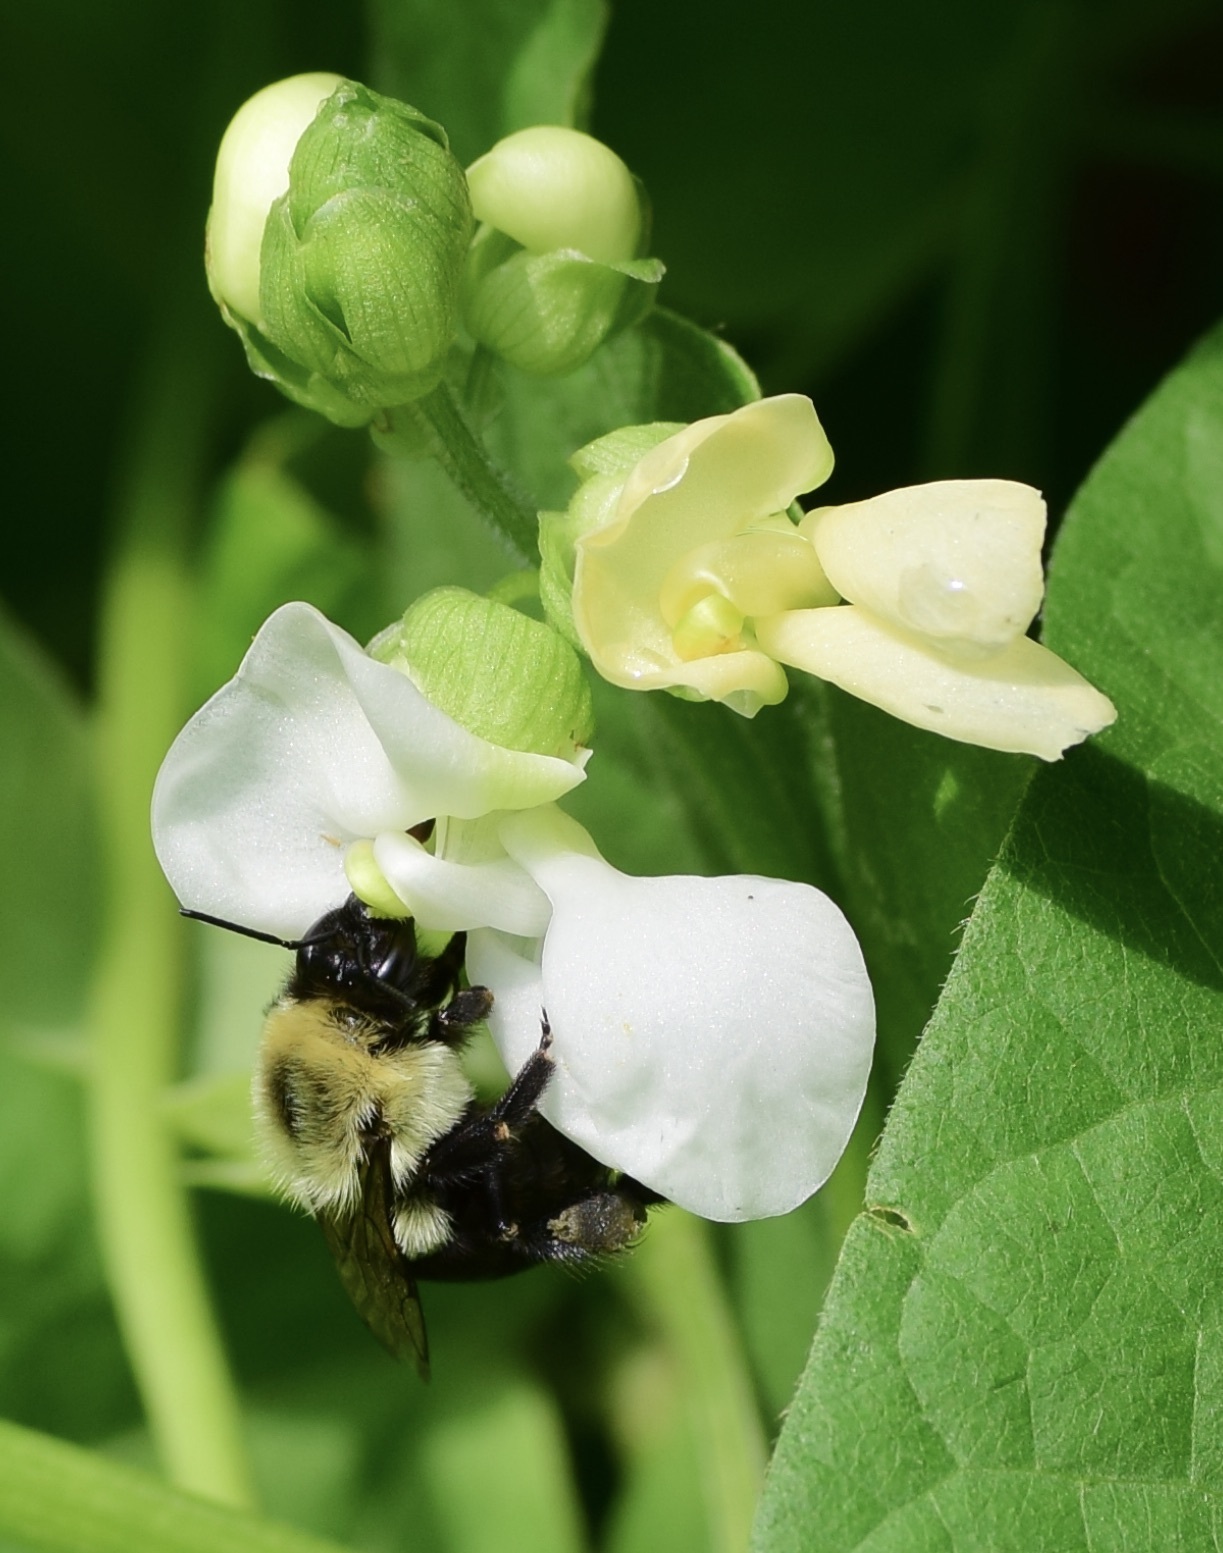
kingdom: Animalia
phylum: Arthropoda
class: Insecta
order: Hymenoptera
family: Apidae
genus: Bombus
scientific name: Bombus impatiens
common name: Common eastern bumble bee
